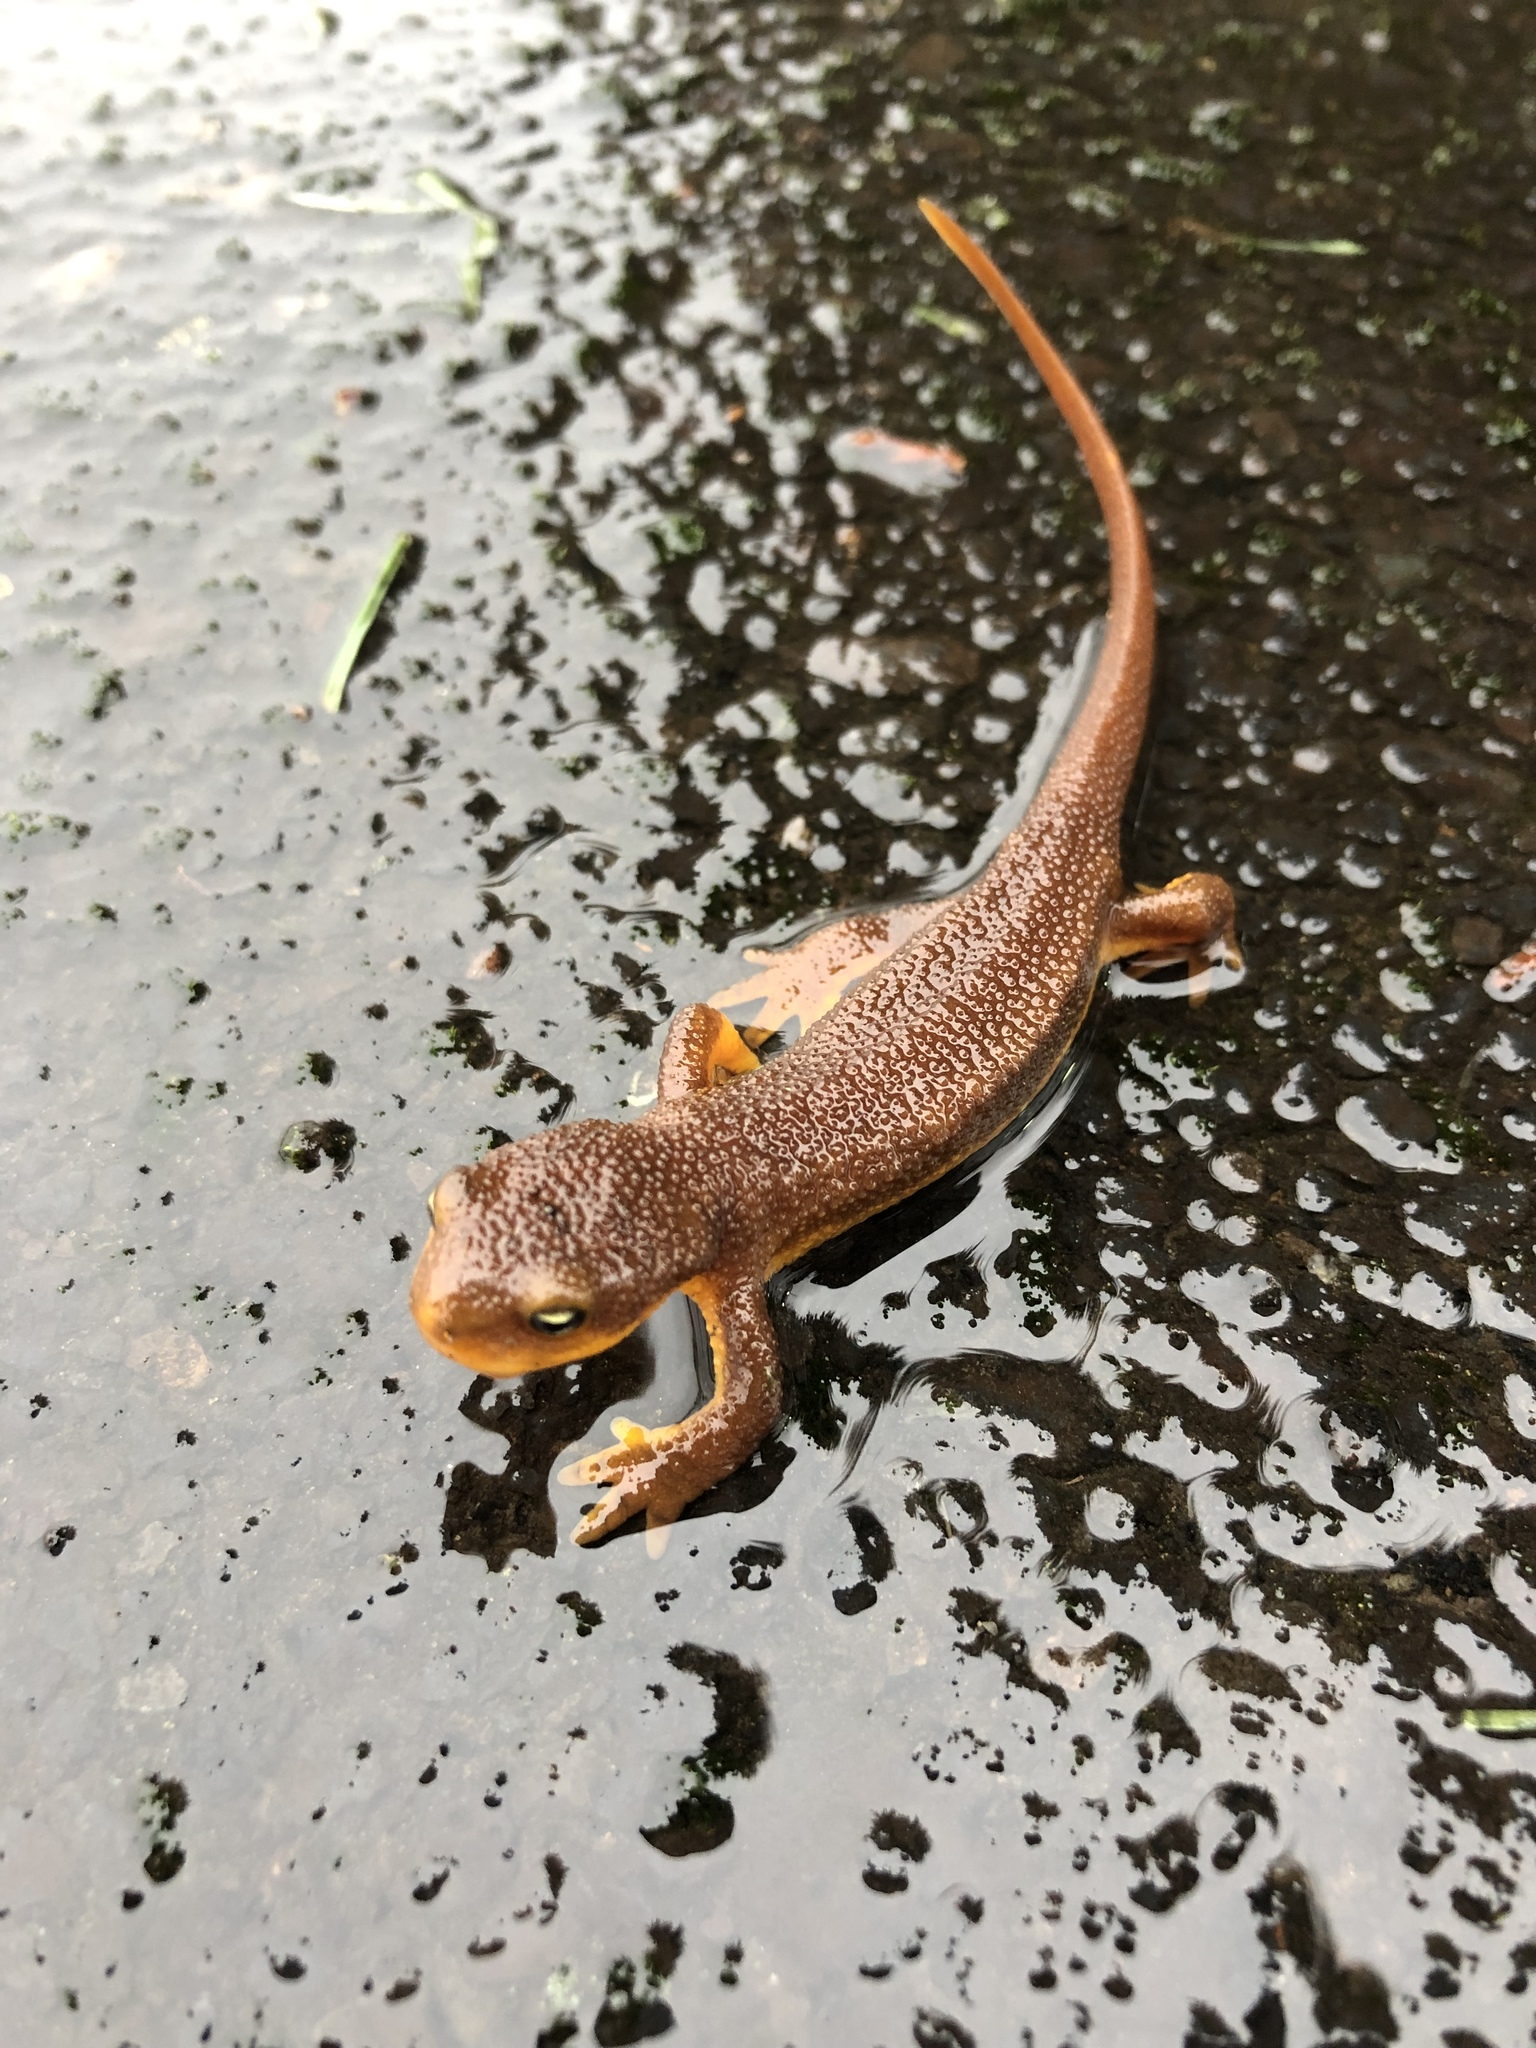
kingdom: Animalia
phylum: Chordata
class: Amphibia
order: Caudata
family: Salamandridae
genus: Taricha
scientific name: Taricha granulosa
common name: Roughskin newt
